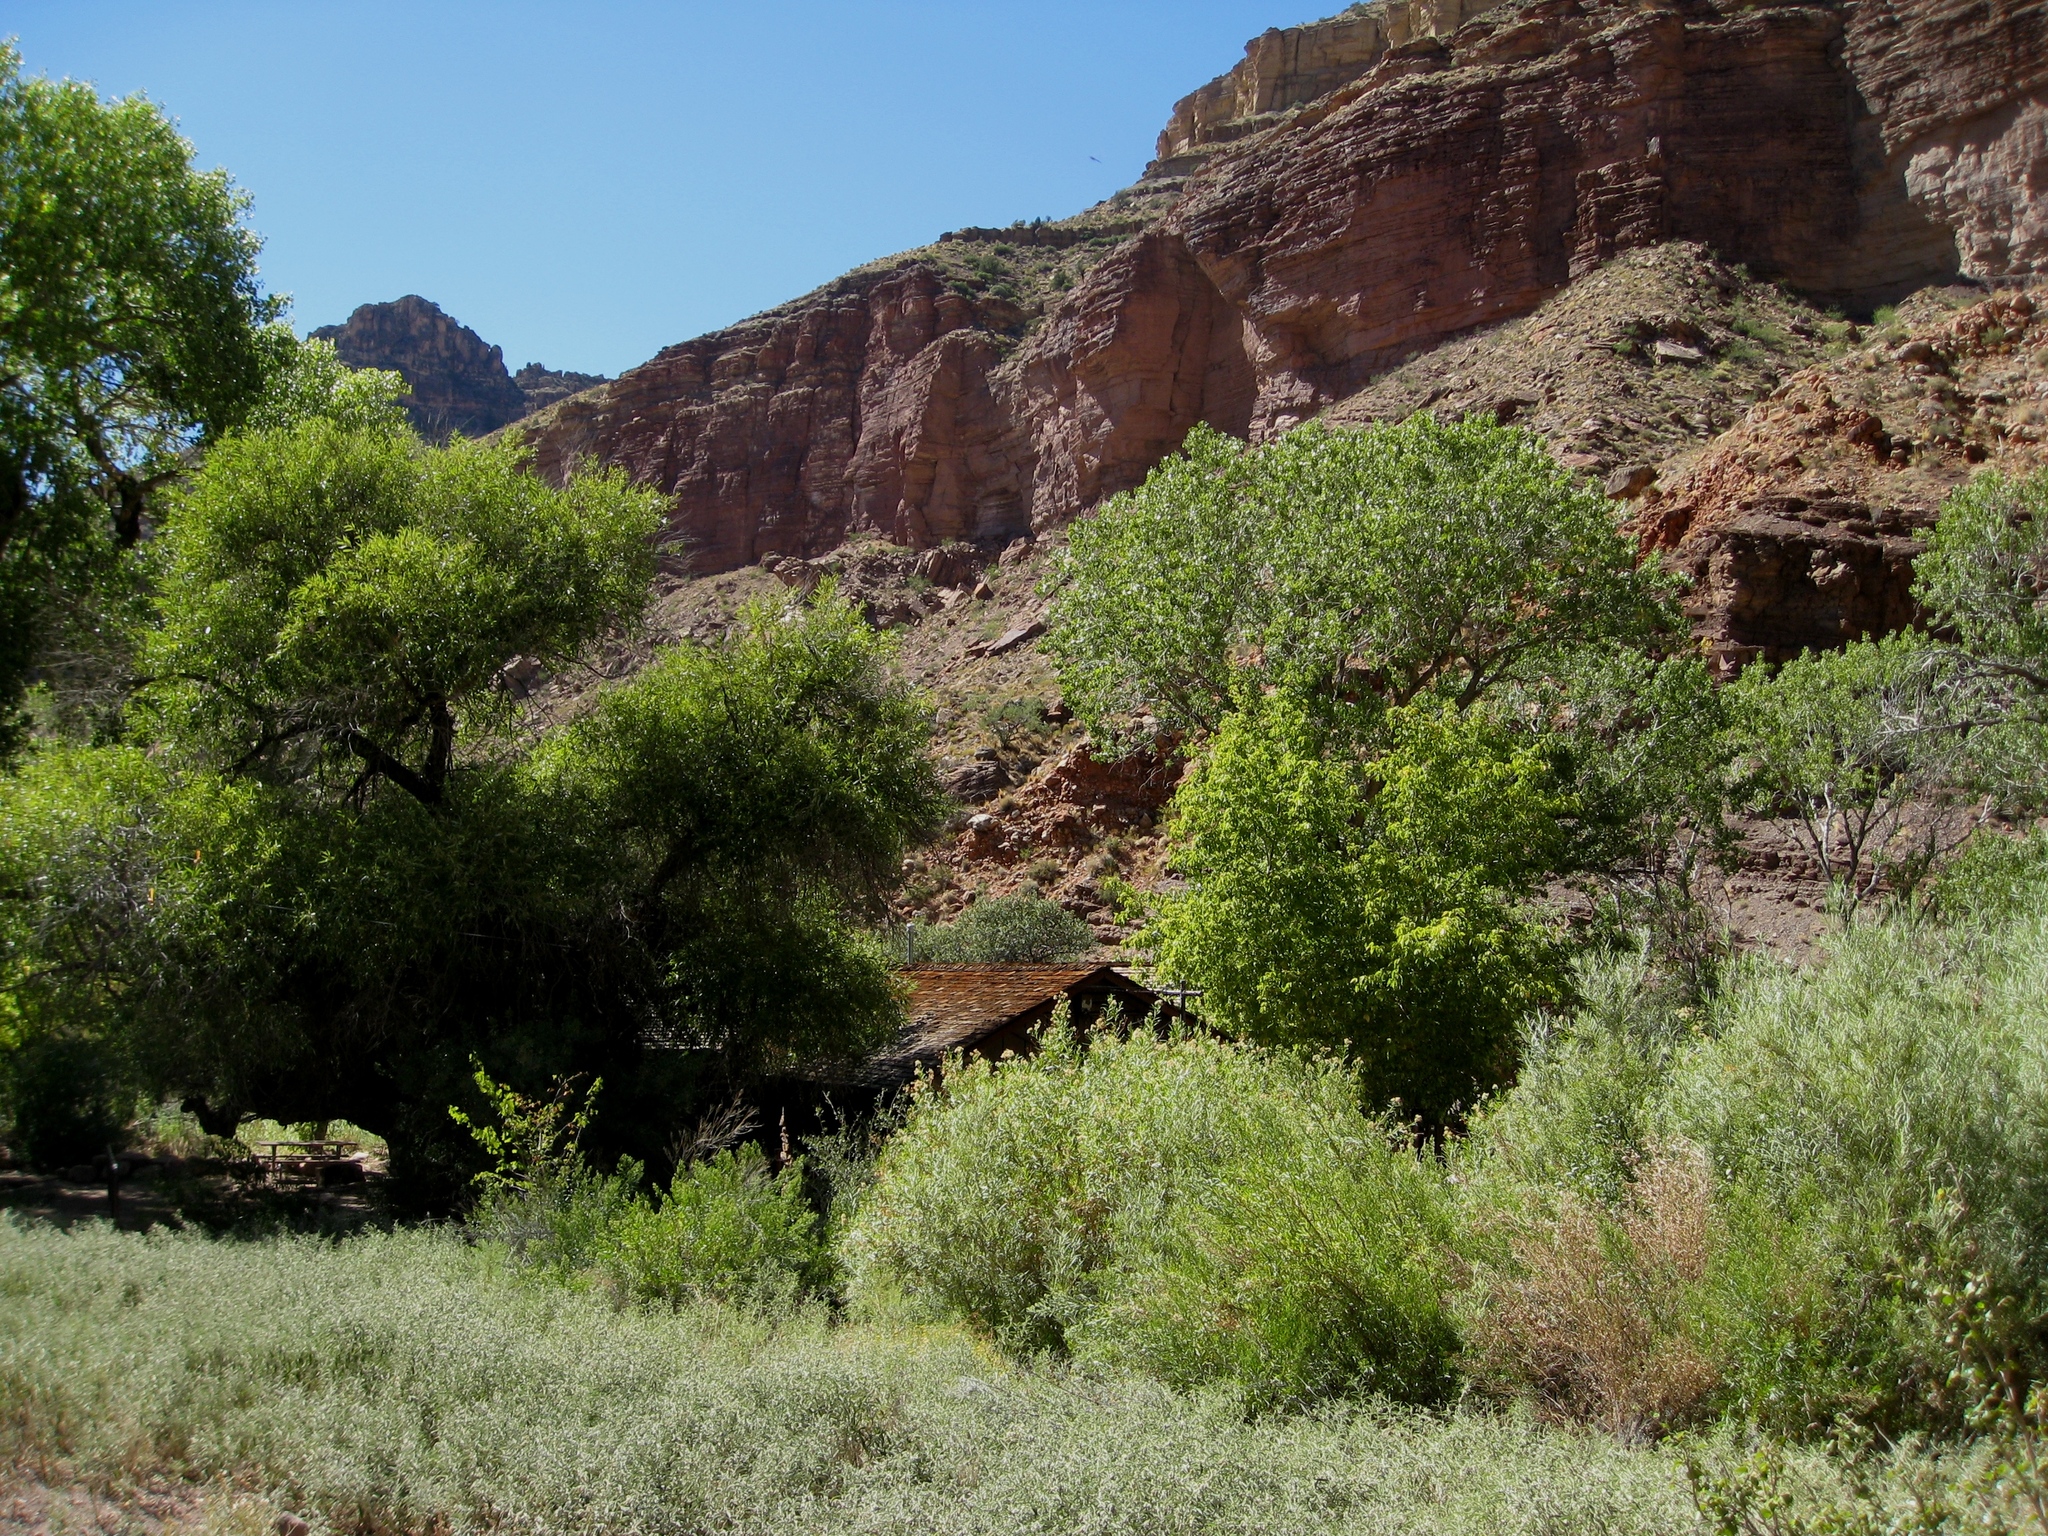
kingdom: Plantae
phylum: Tracheophyta
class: Magnoliopsida
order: Malpighiales
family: Salicaceae
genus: Populus
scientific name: Populus fremontii
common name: Fremont's cottonwood
